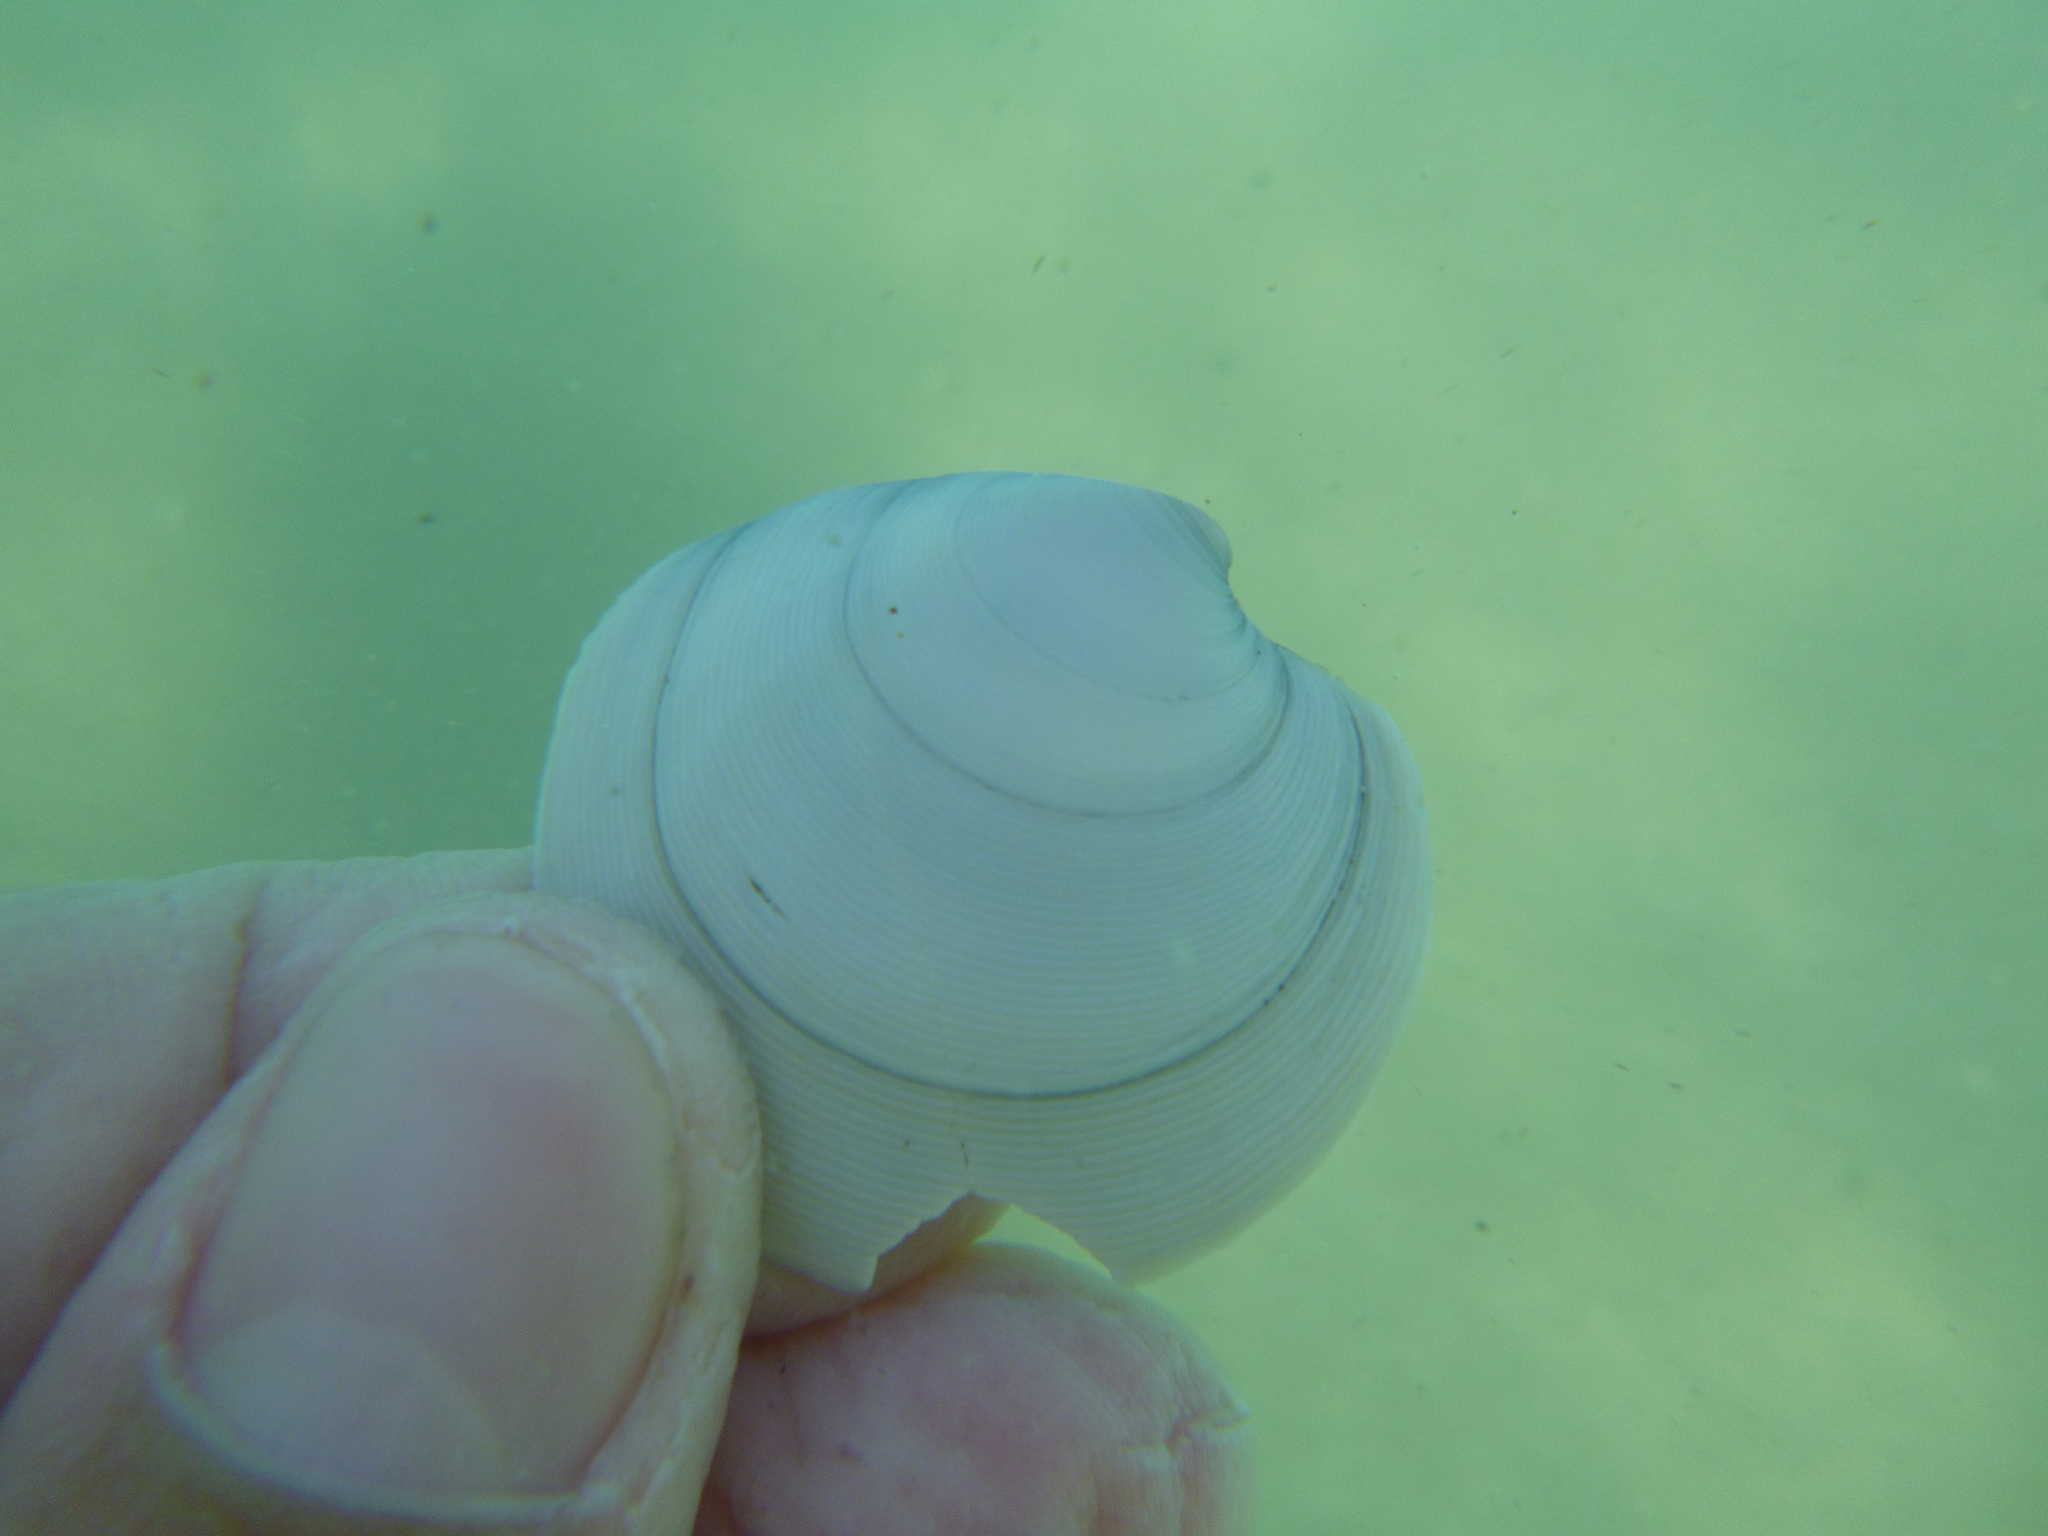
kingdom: Animalia
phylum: Mollusca
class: Bivalvia
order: Venerida
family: Veneridae
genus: Dosinia
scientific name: Dosinia subrosea
